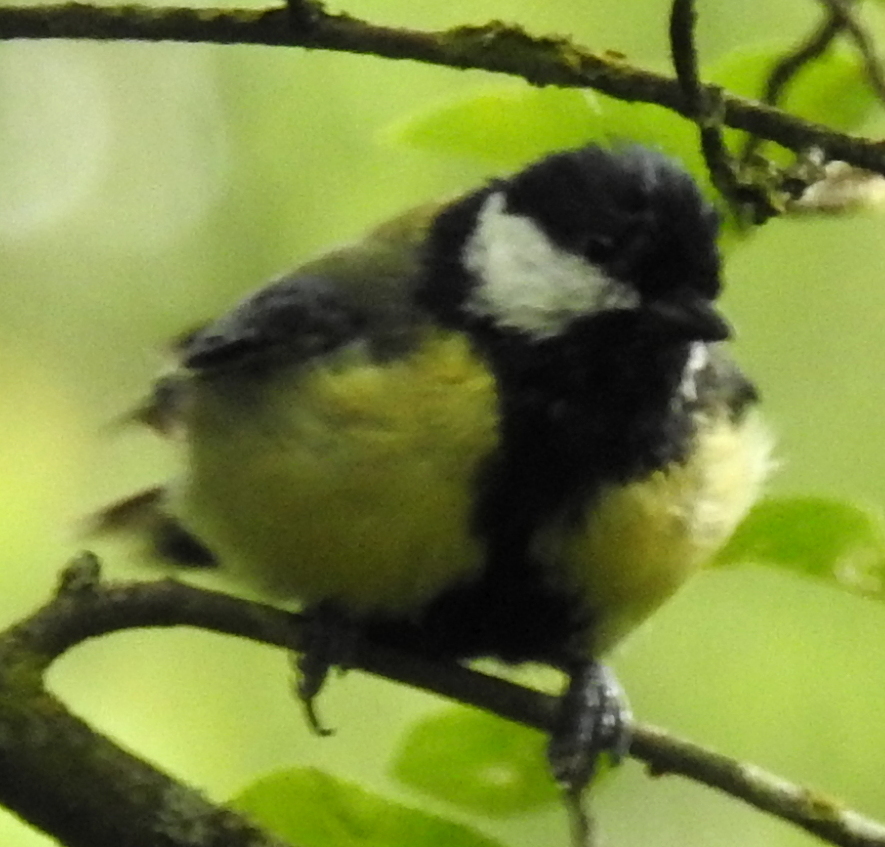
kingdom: Animalia
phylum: Chordata
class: Aves
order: Passeriformes
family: Paridae
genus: Parus
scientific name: Parus major
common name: Great tit
